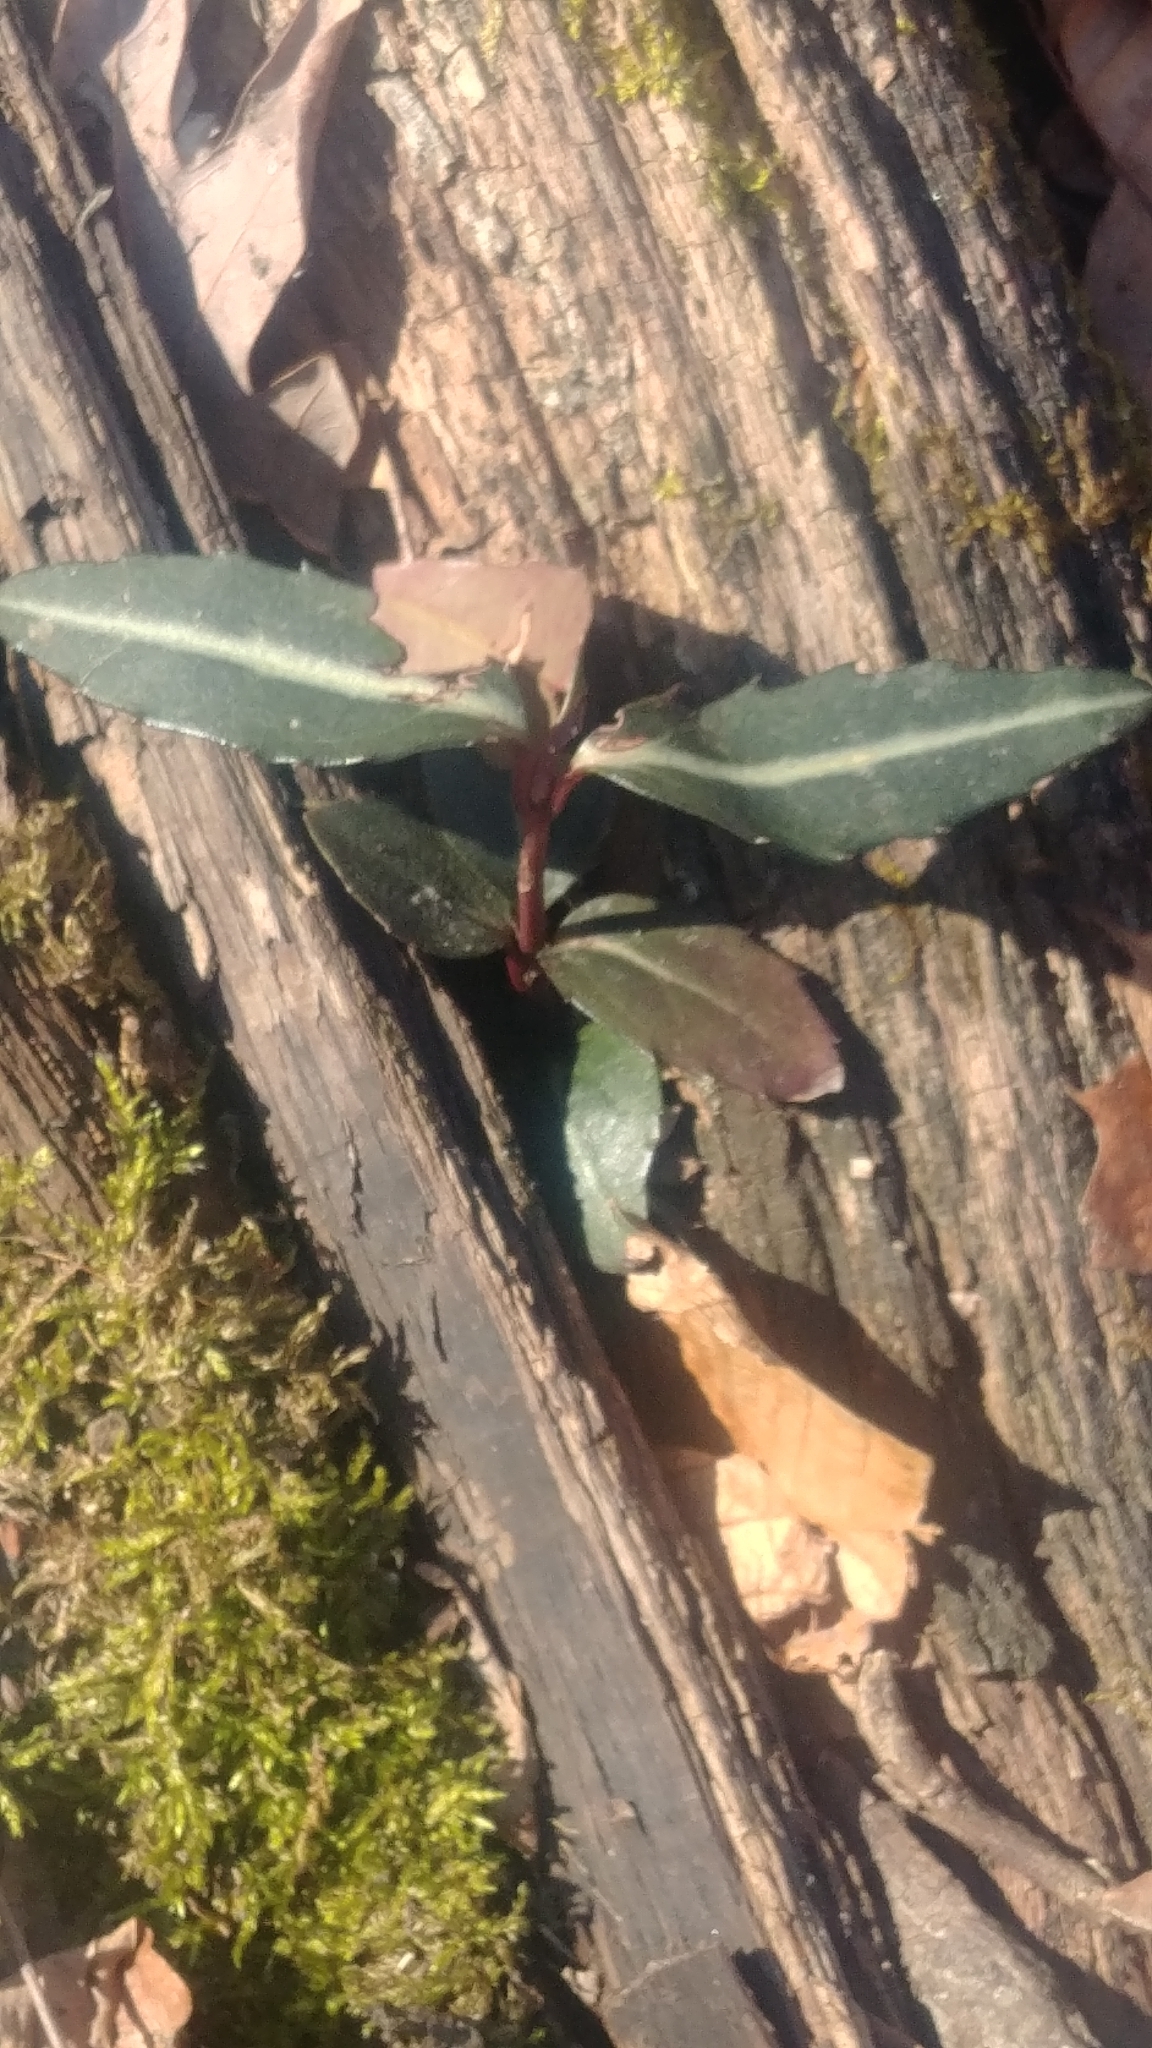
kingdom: Plantae
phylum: Tracheophyta
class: Magnoliopsida
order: Ericales
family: Ericaceae
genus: Chimaphila
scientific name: Chimaphila maculata
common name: Spotted pipsissewa
